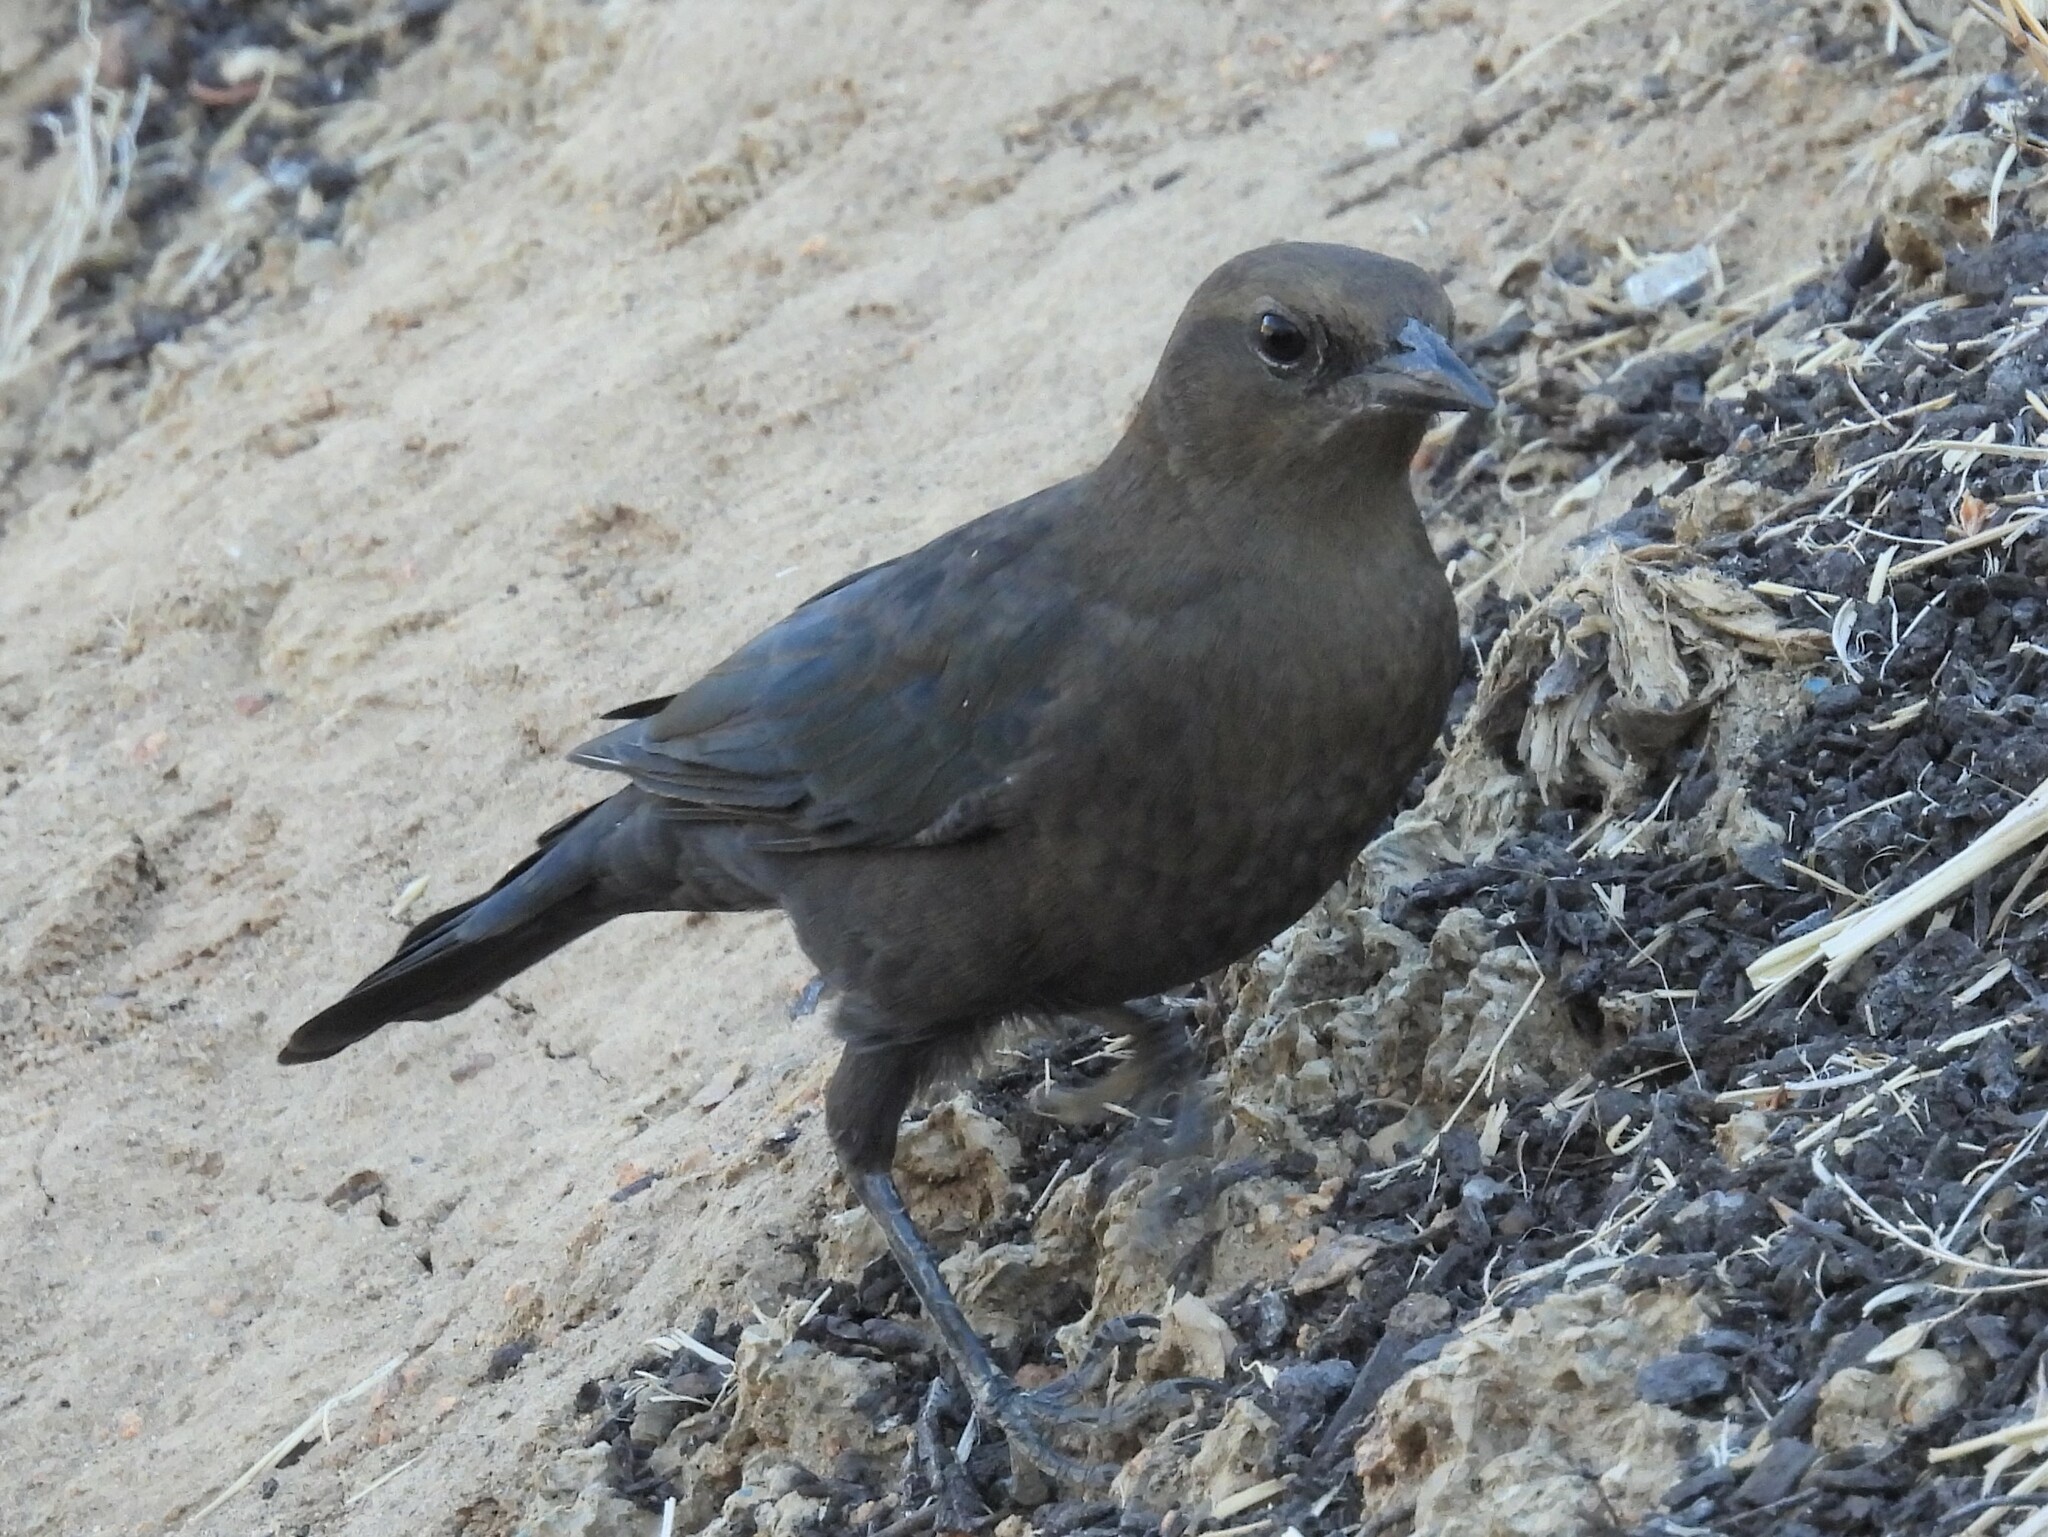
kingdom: Animalia
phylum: Chordata
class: Aves
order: Passeriformes
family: Icteridae
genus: Euphagus
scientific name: Euphagus cyanocephalus
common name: Brewer's blackbird
